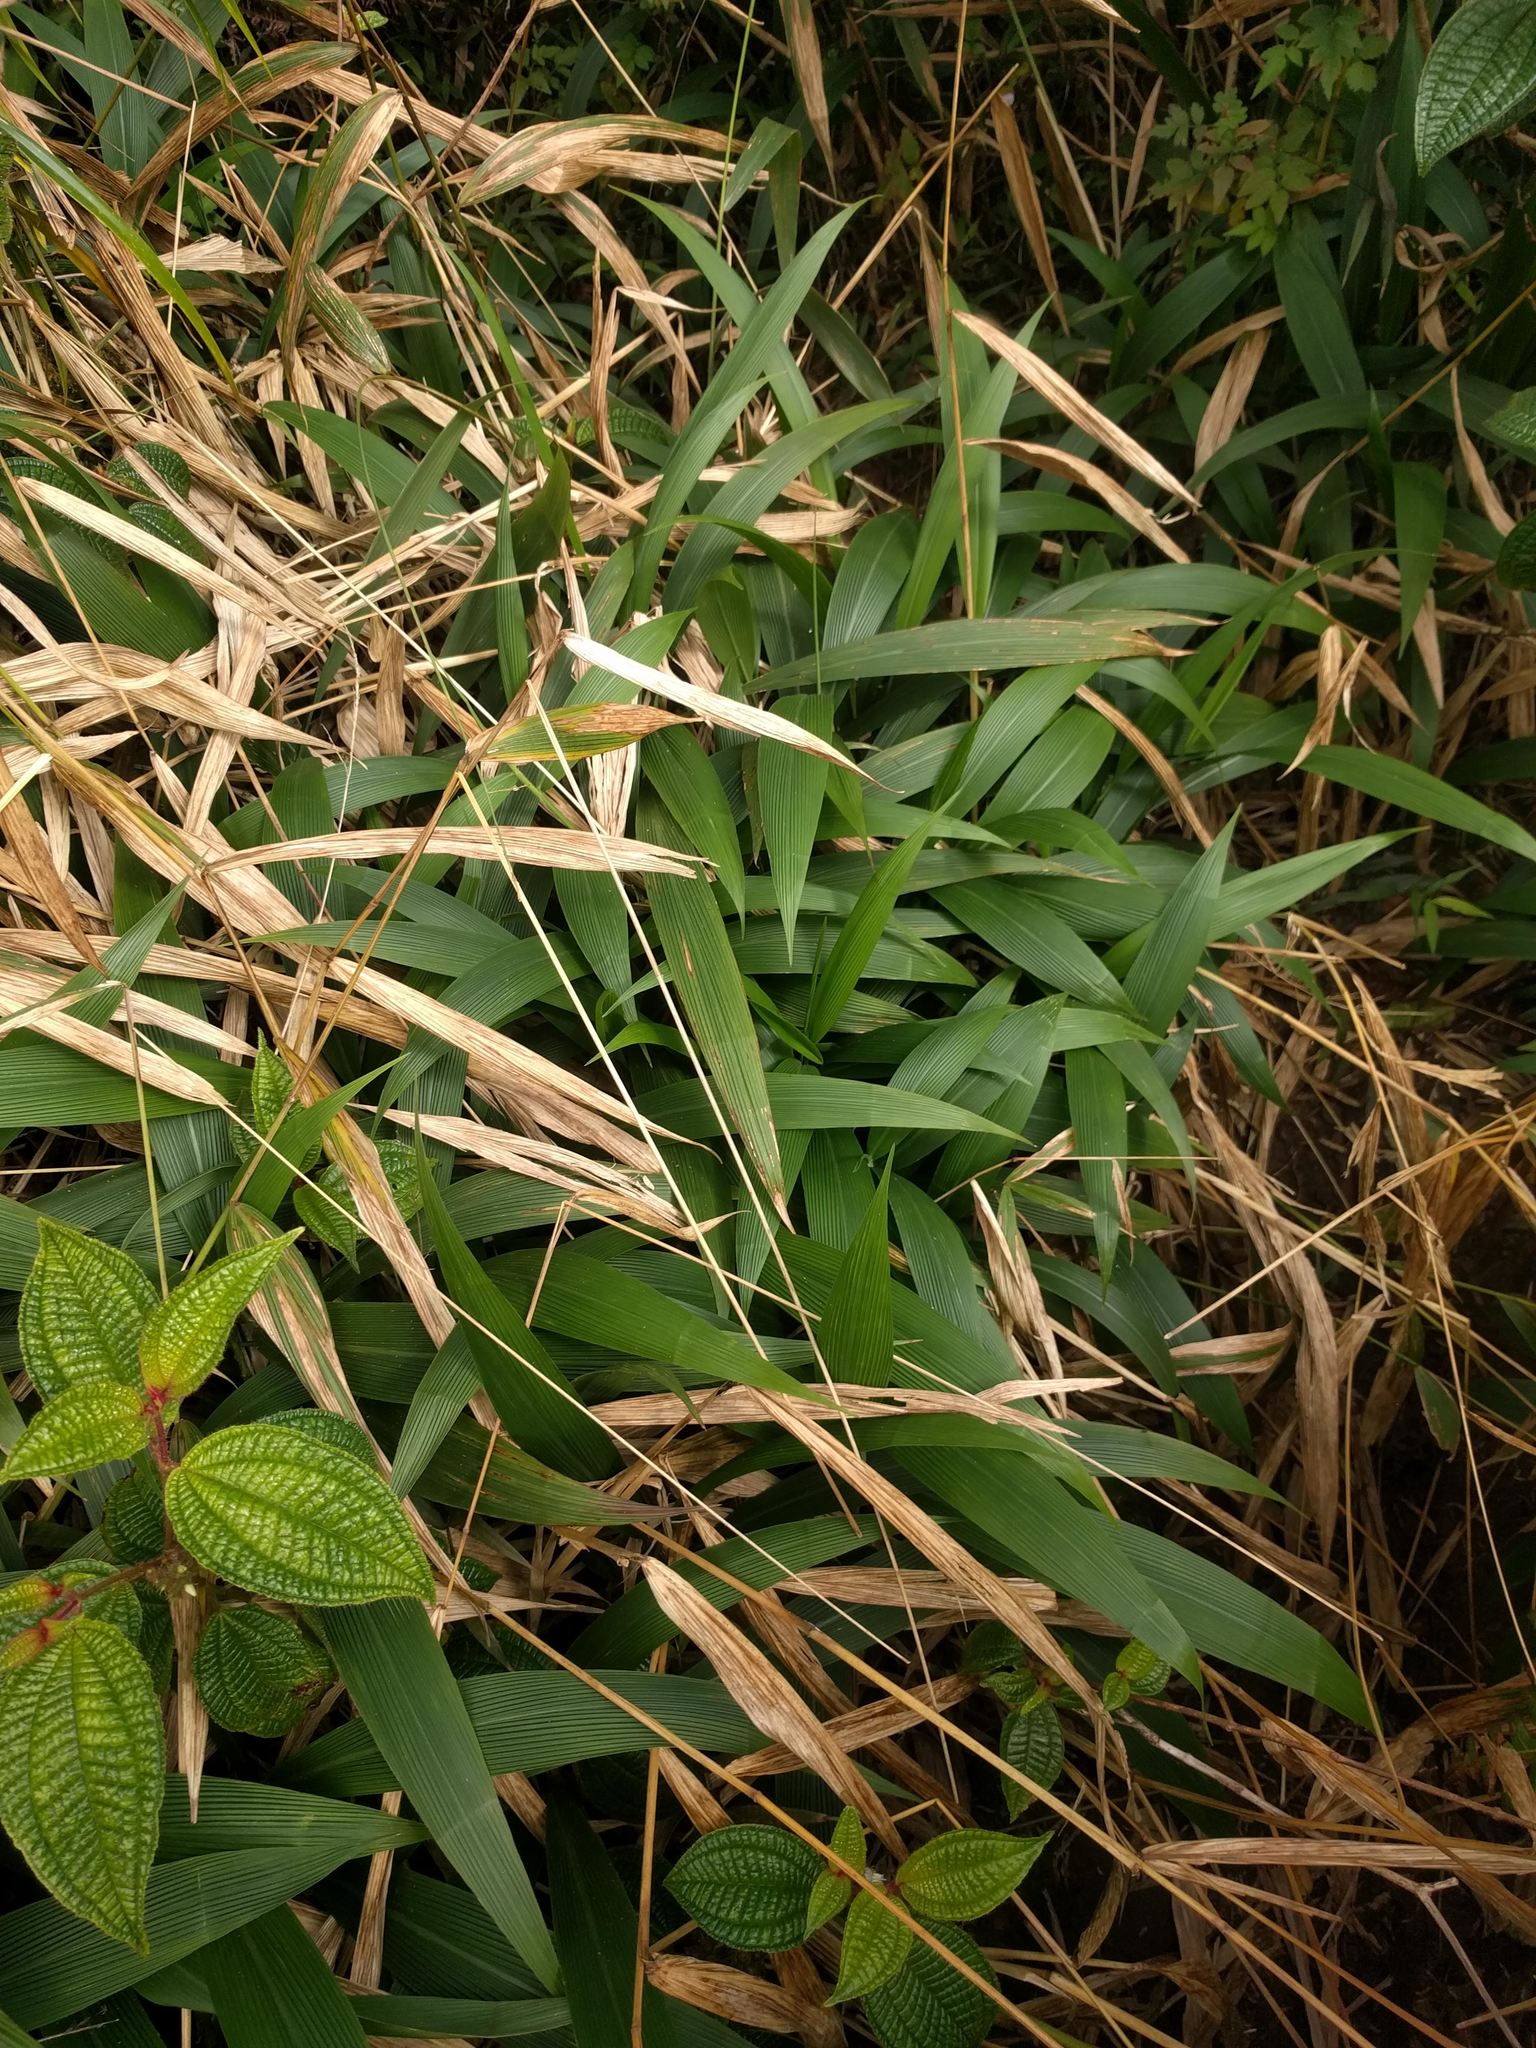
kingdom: Plantae
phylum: Tracheophyta
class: Liliopsida
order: Poales
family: Poaceae
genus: Setaria
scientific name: Setaria palmifolia
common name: Broadleaved bristlegrass
